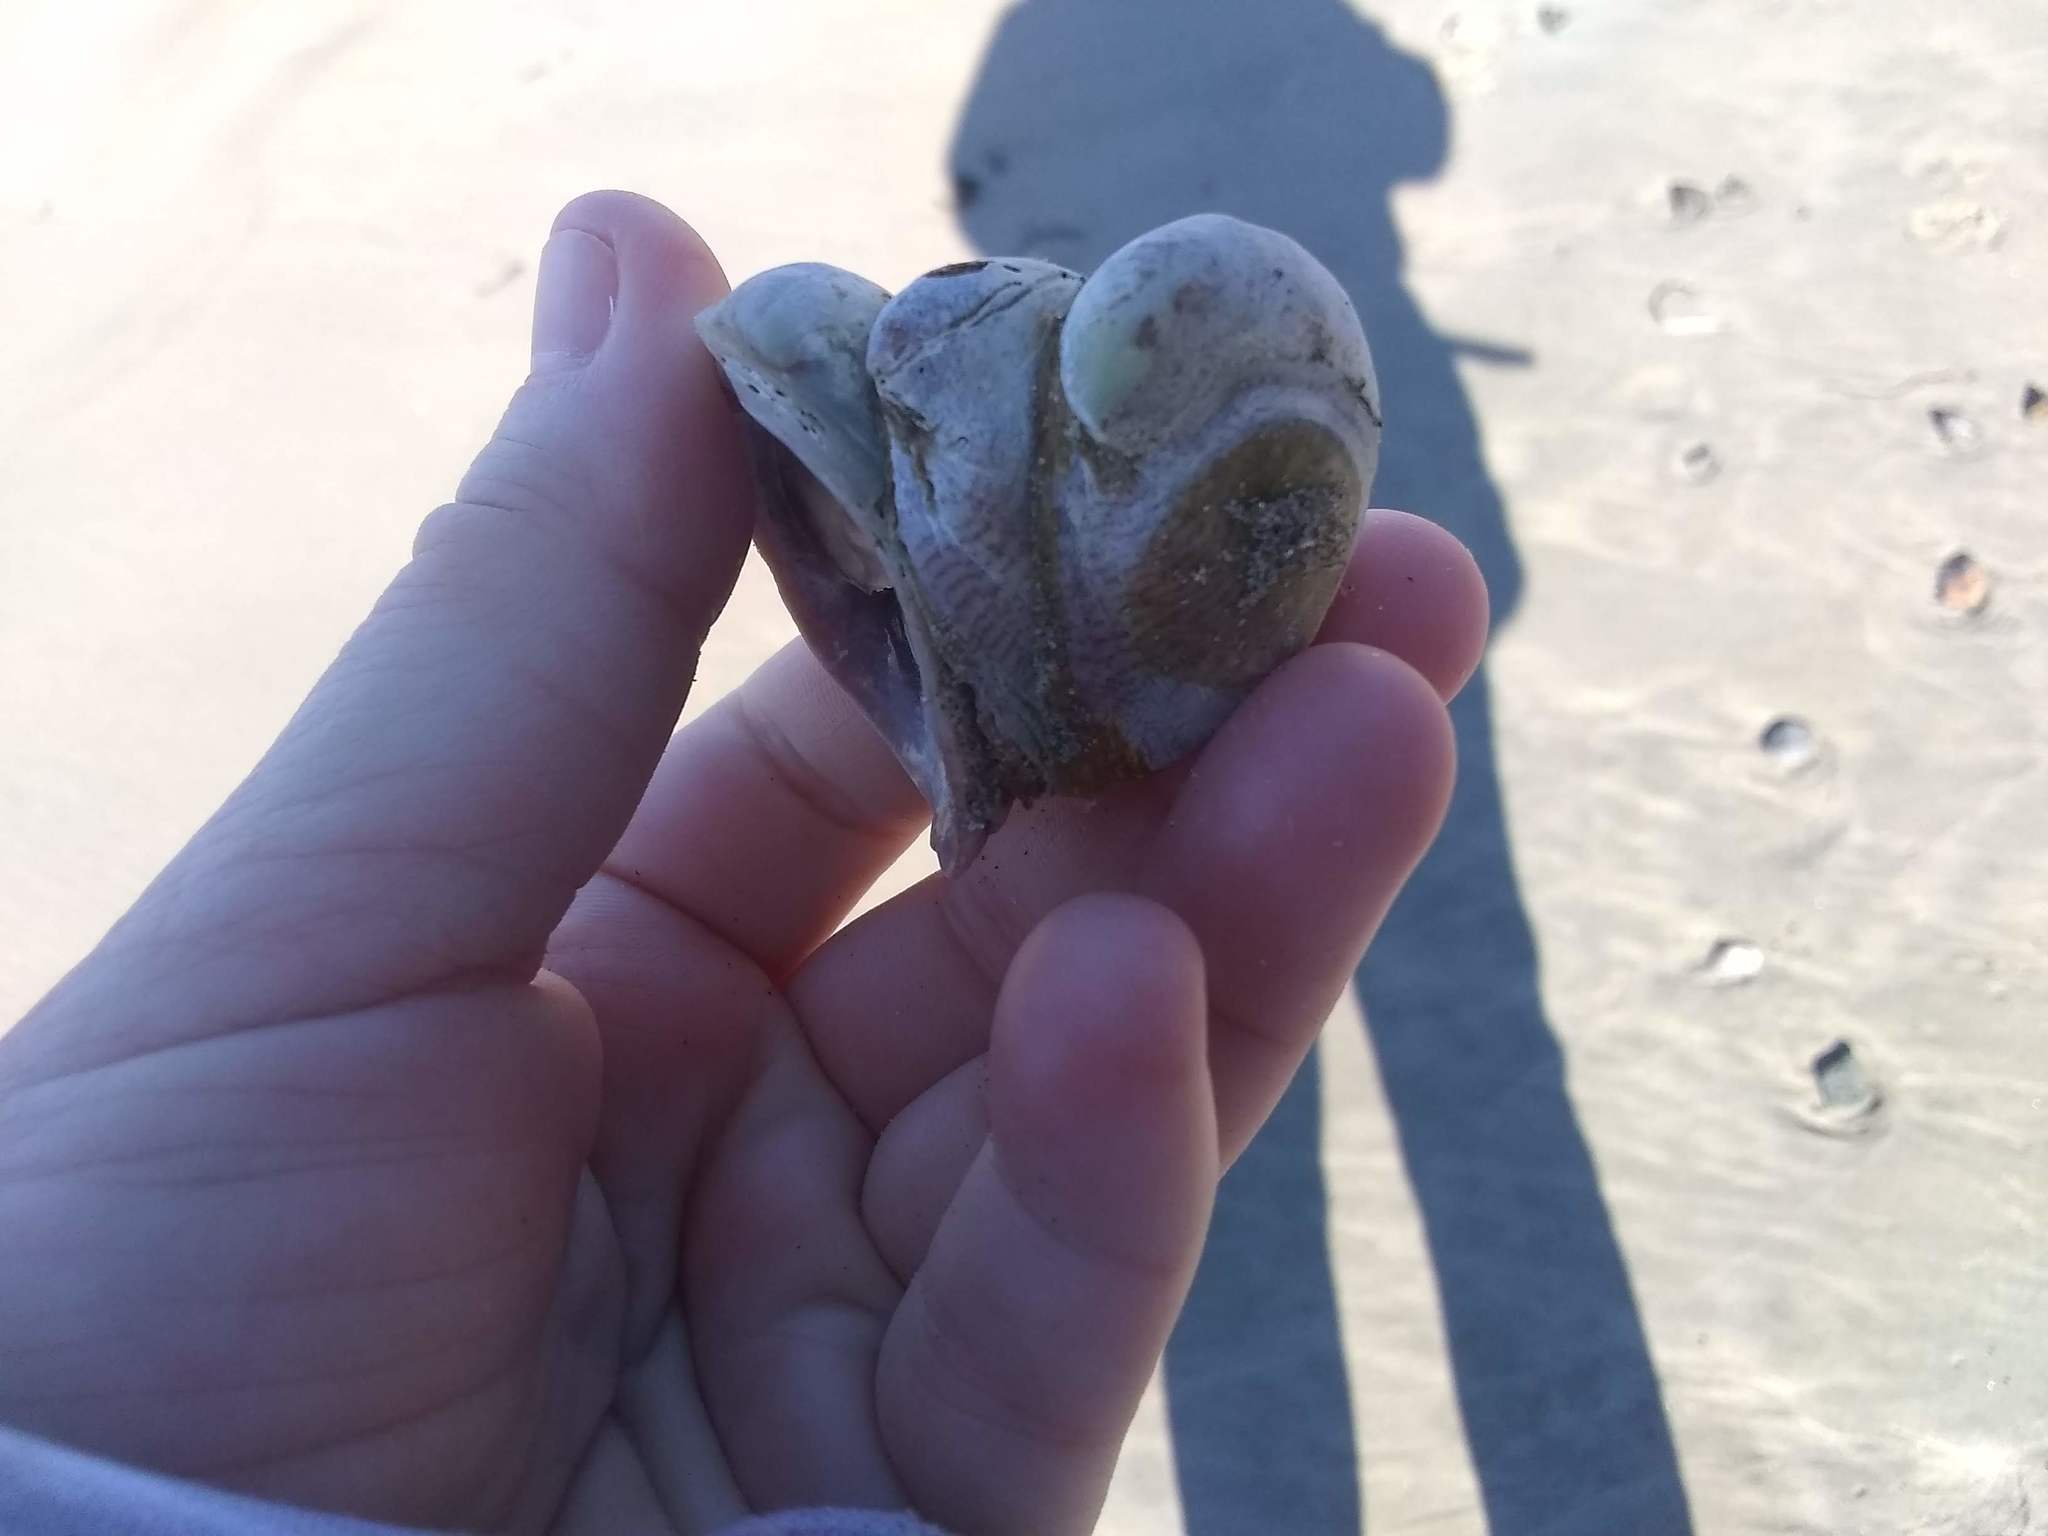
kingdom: Animalia
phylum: Mollusca
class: Gastropoda
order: Littorinimorpha
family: Calyptraeidae
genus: Crepidula
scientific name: Crepidula fornicata
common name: Slipper limpet
